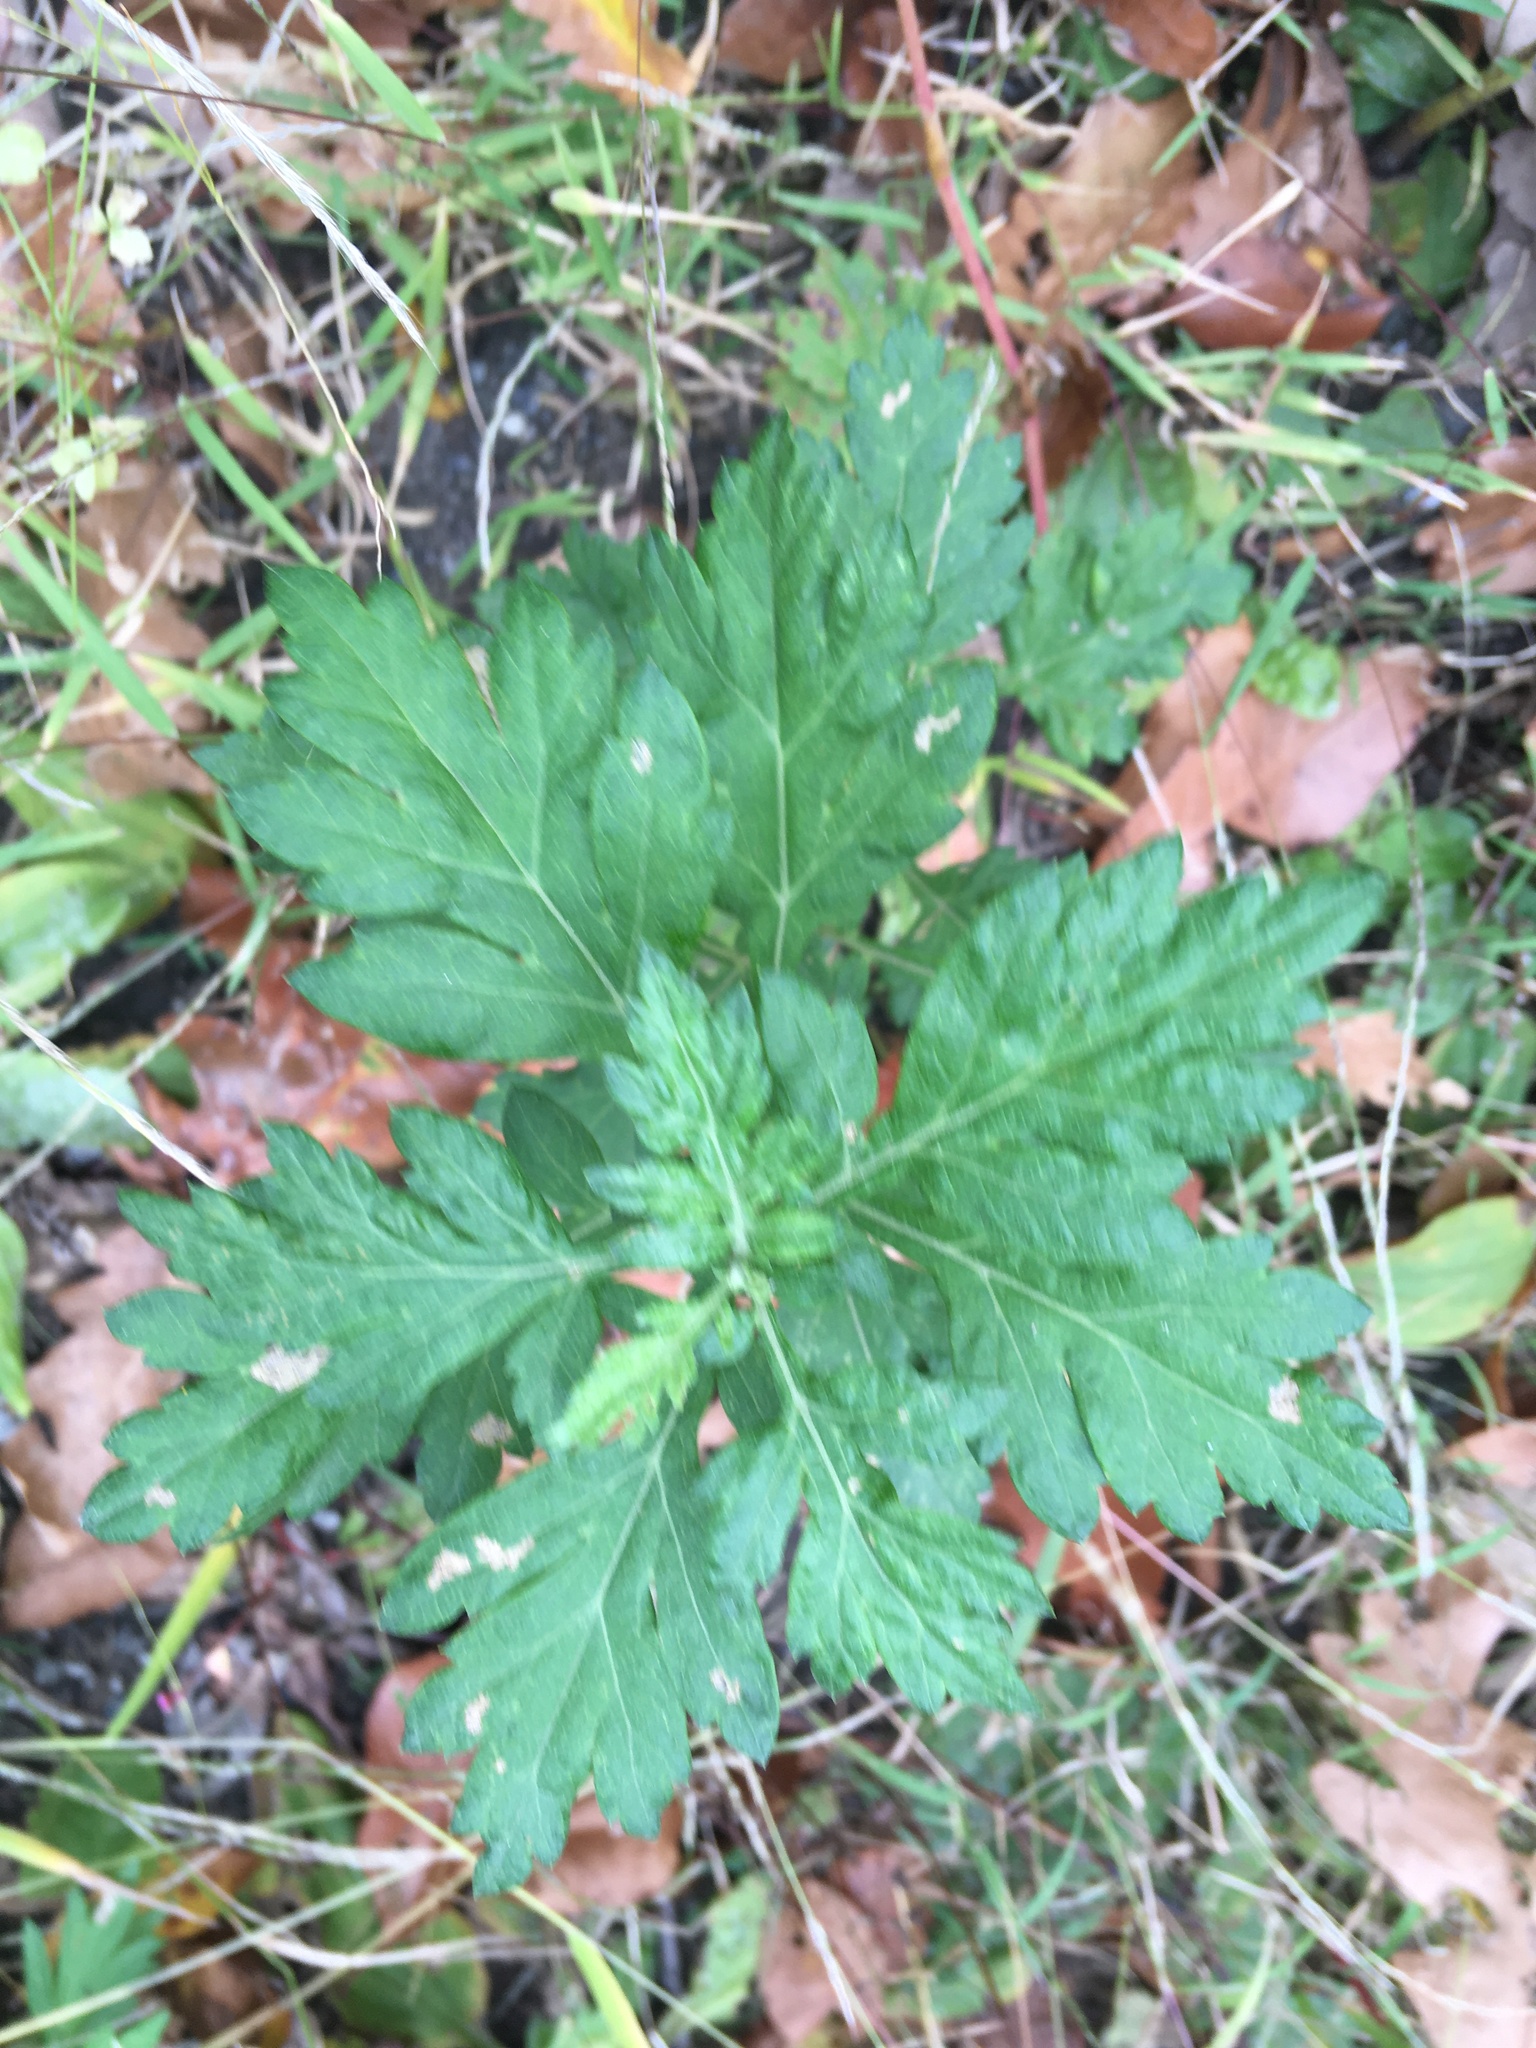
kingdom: Plantae
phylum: Tracheophyta
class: Magnoliopsida
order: Asterales
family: Asteraceae
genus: Artemisia
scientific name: Artemisia vulgaris
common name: Mugwort
